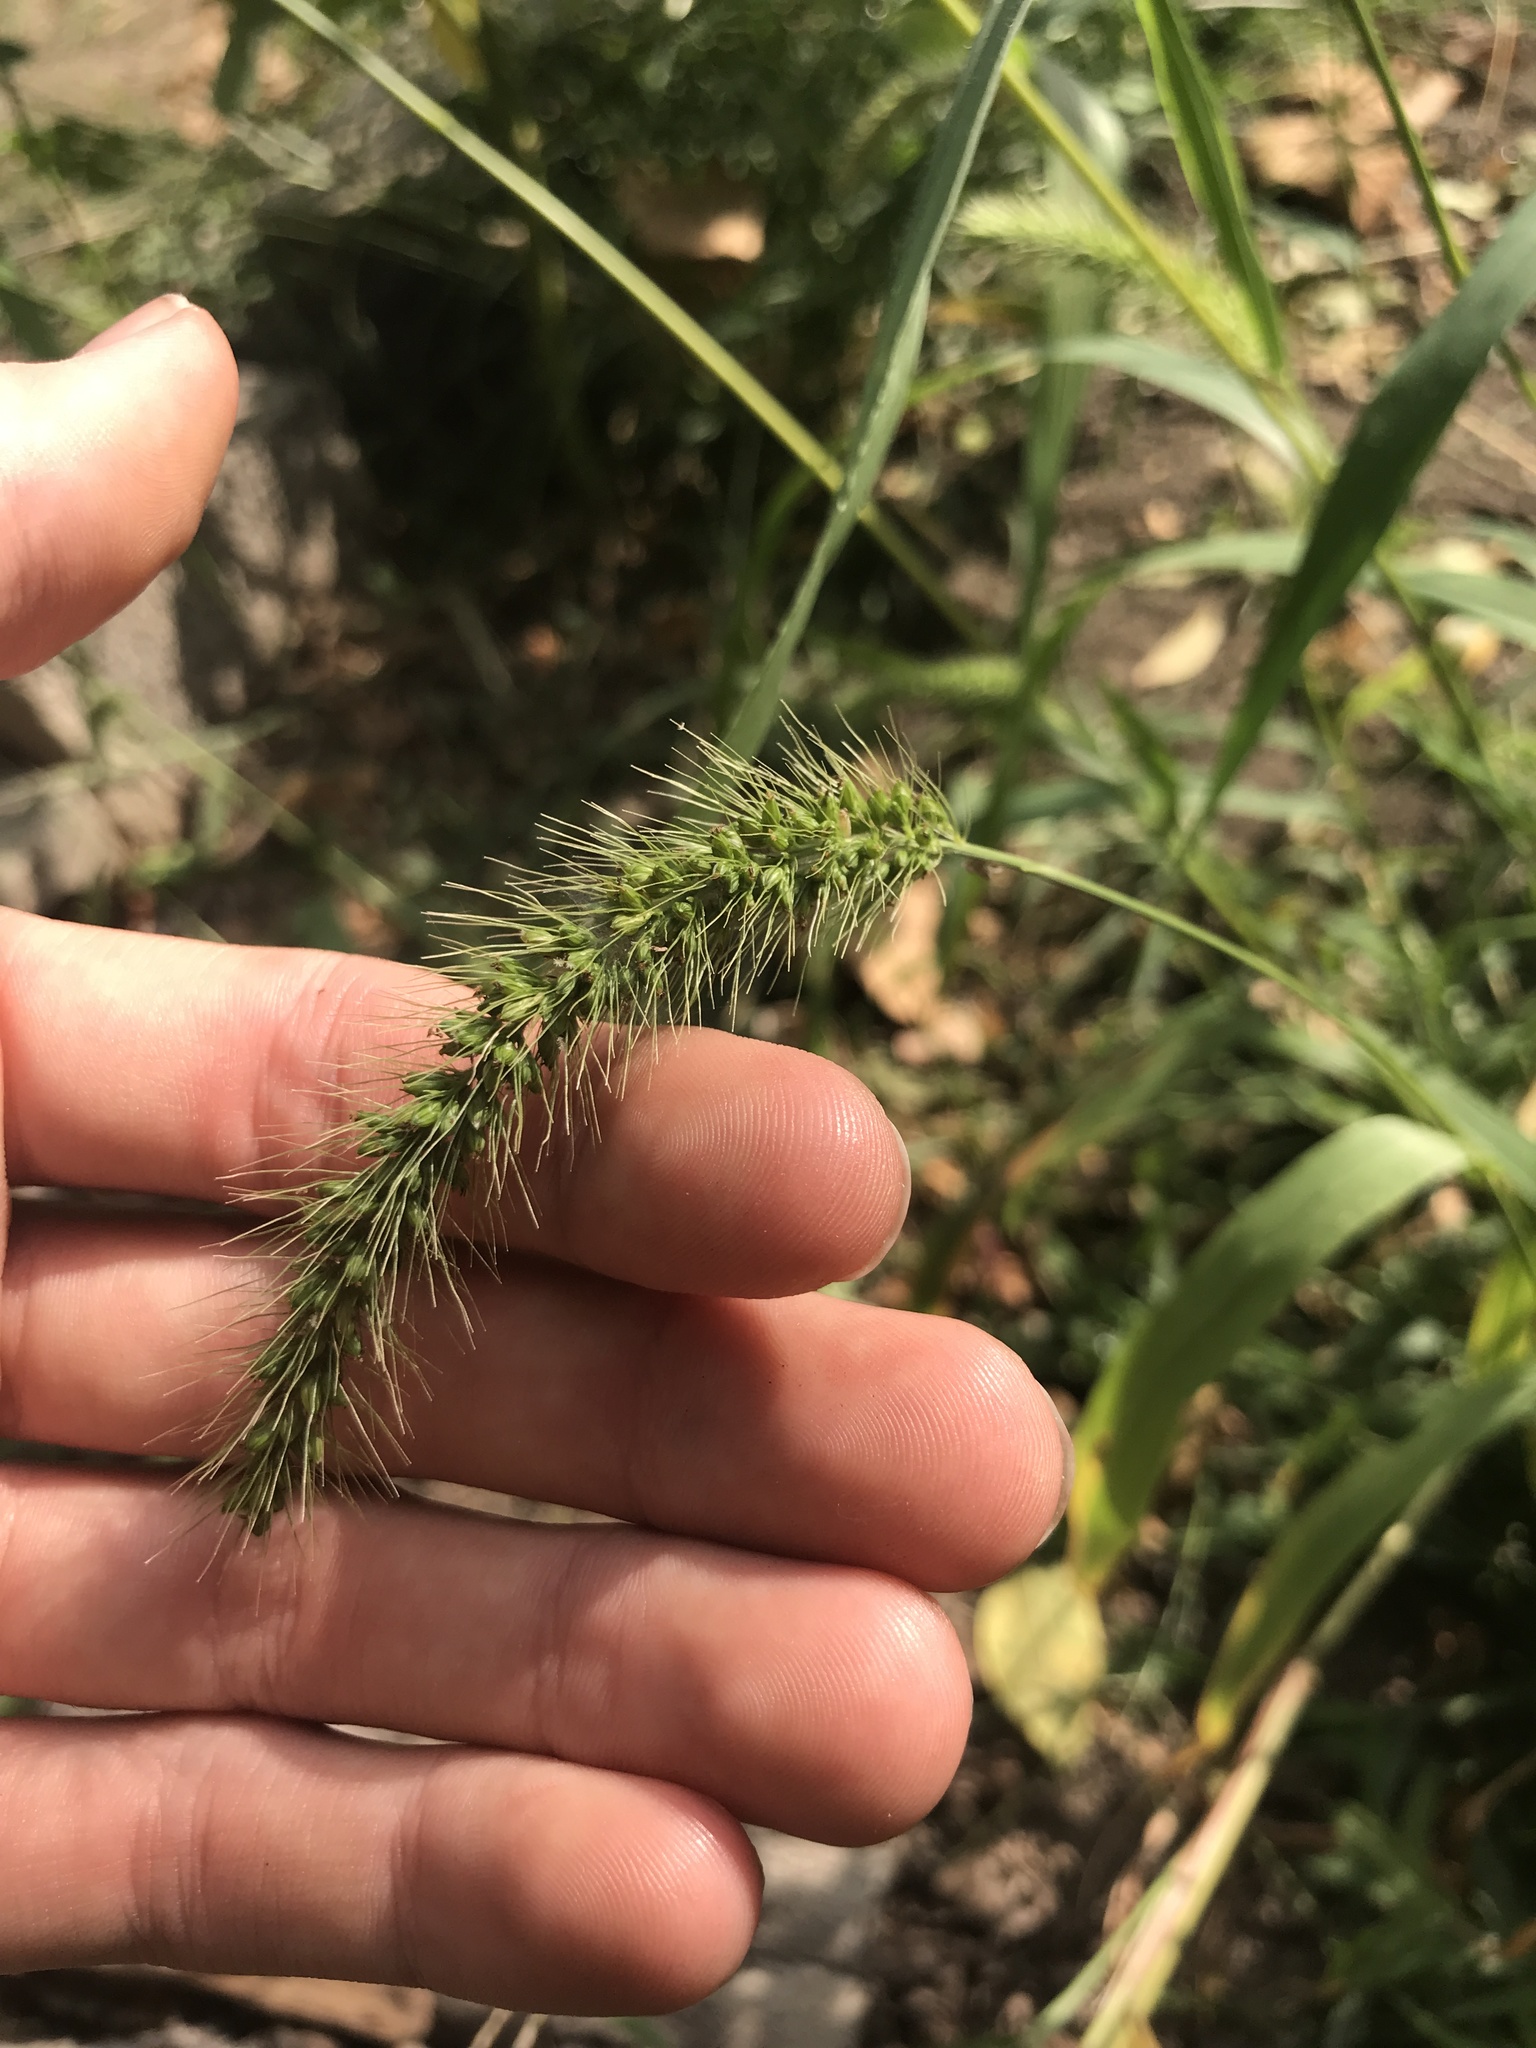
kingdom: Plantae
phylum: Tracheophyta
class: Liliopsida
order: Poales
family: Poaceae
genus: Setaria
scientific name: Setaria faberi
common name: Nodding bristle-grass
